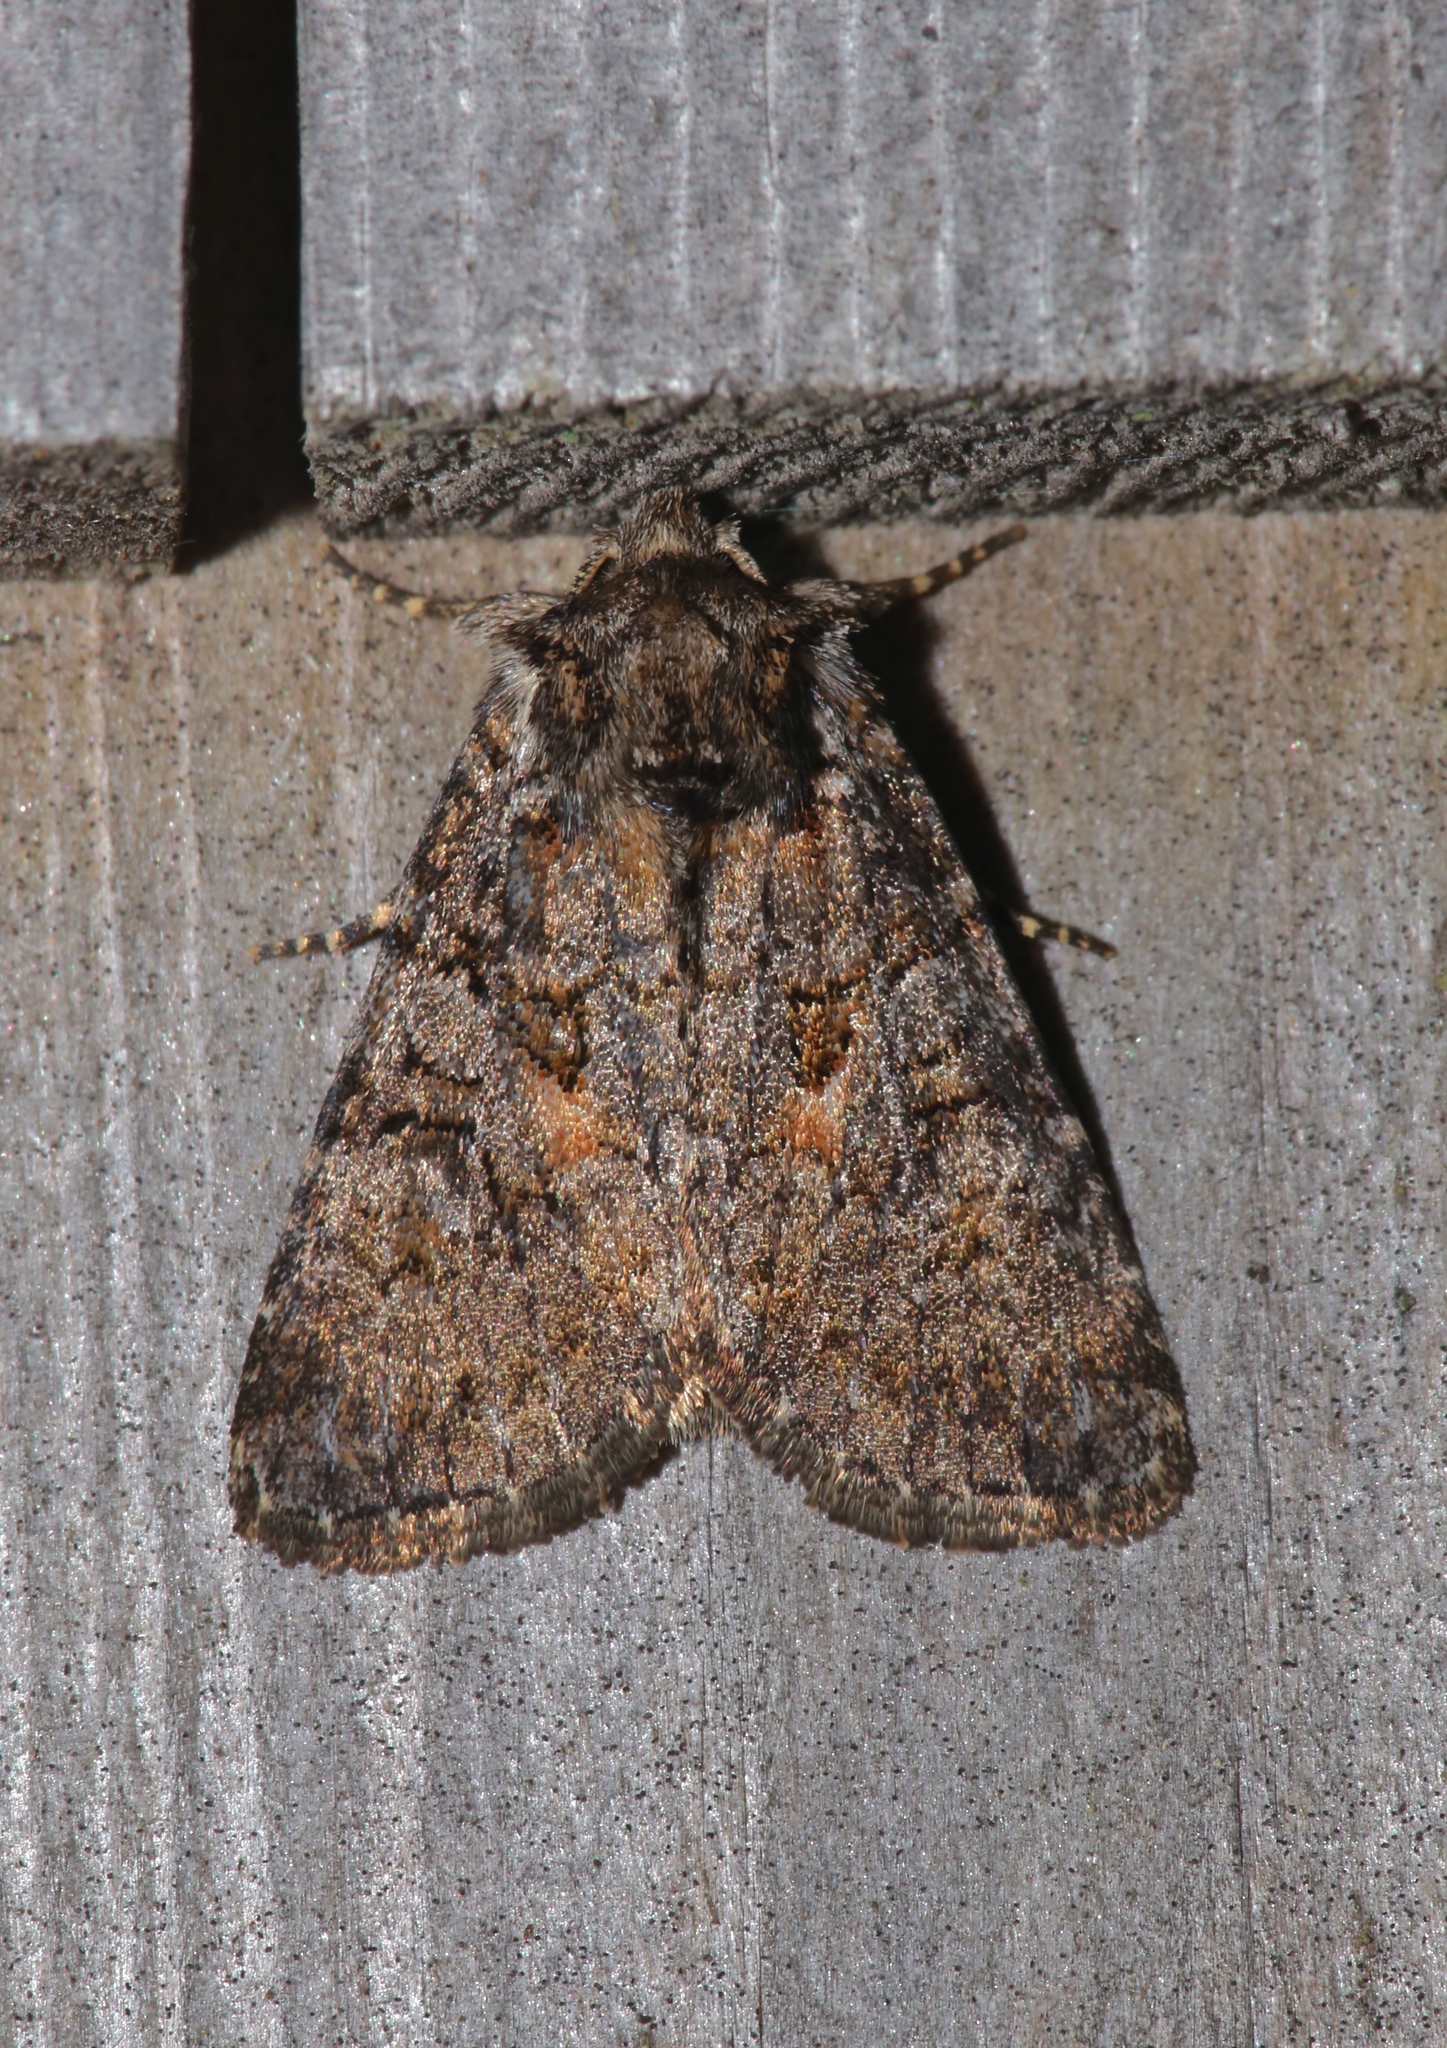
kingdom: Animalia
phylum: Arthropoda
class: Insecta
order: Lepidoptera
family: Noctuidae
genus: Orthodes
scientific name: Orthodes detracta
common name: Disparaged arches moth
